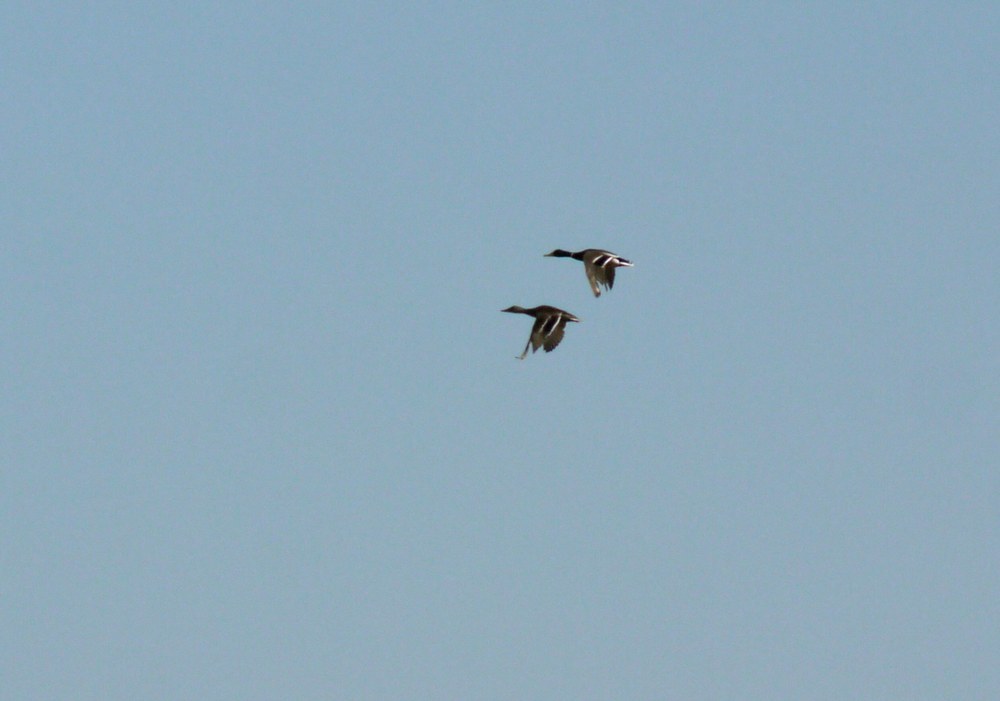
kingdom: Animalia
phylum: Chordata
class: Aves
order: Anseriformes
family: Anatidae
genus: Anas
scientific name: Anas platyrhynchos
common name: Mallard
